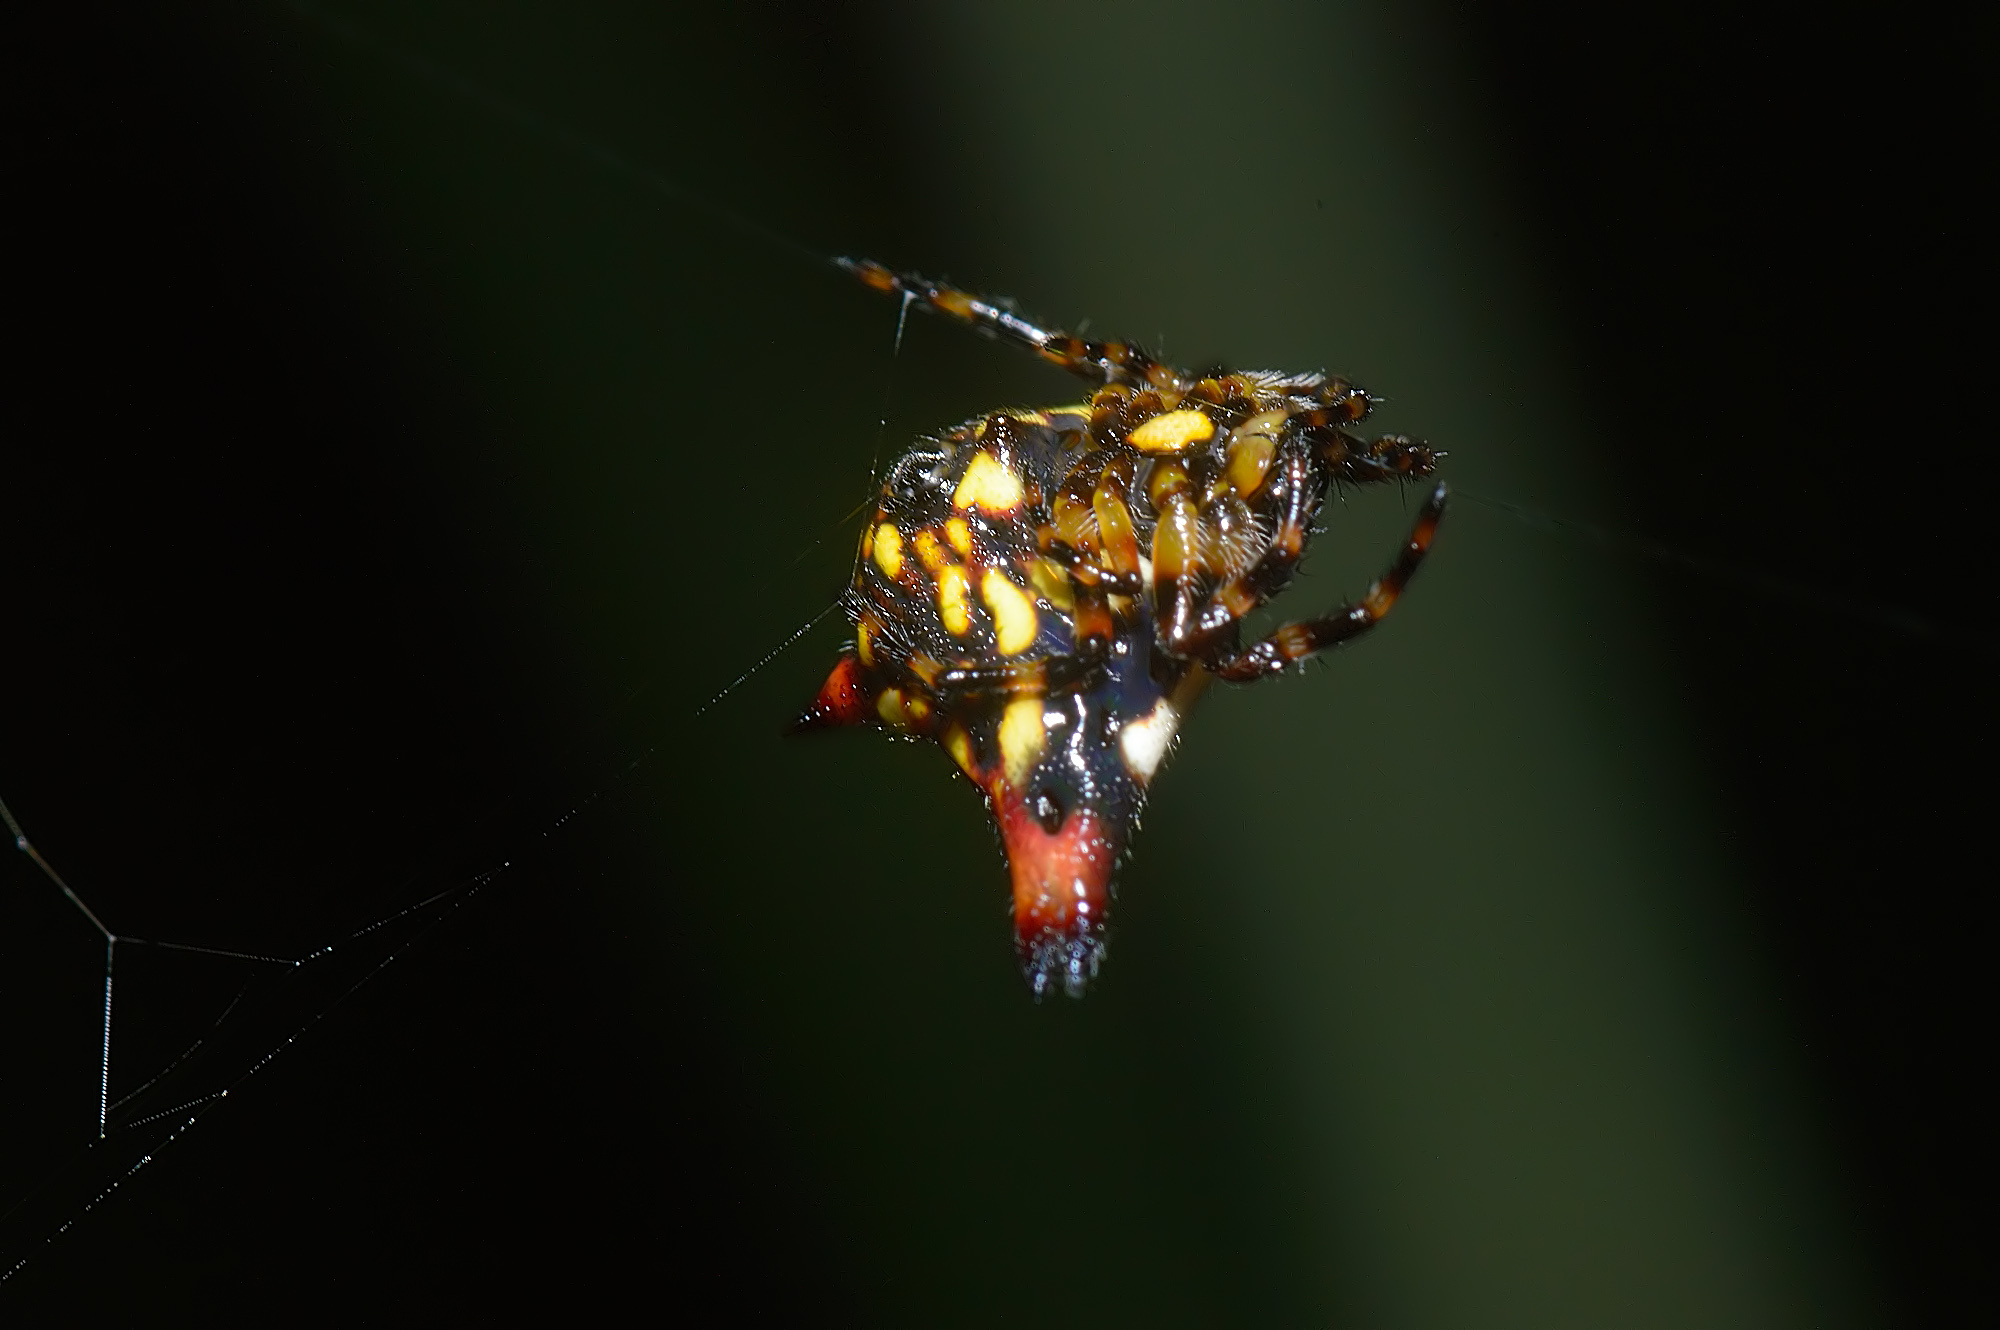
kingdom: Animalia
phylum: Arthropoda
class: Arachnida
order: Araneae
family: Araneidae
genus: Gasteracantha
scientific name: Gasteracantha geminata
